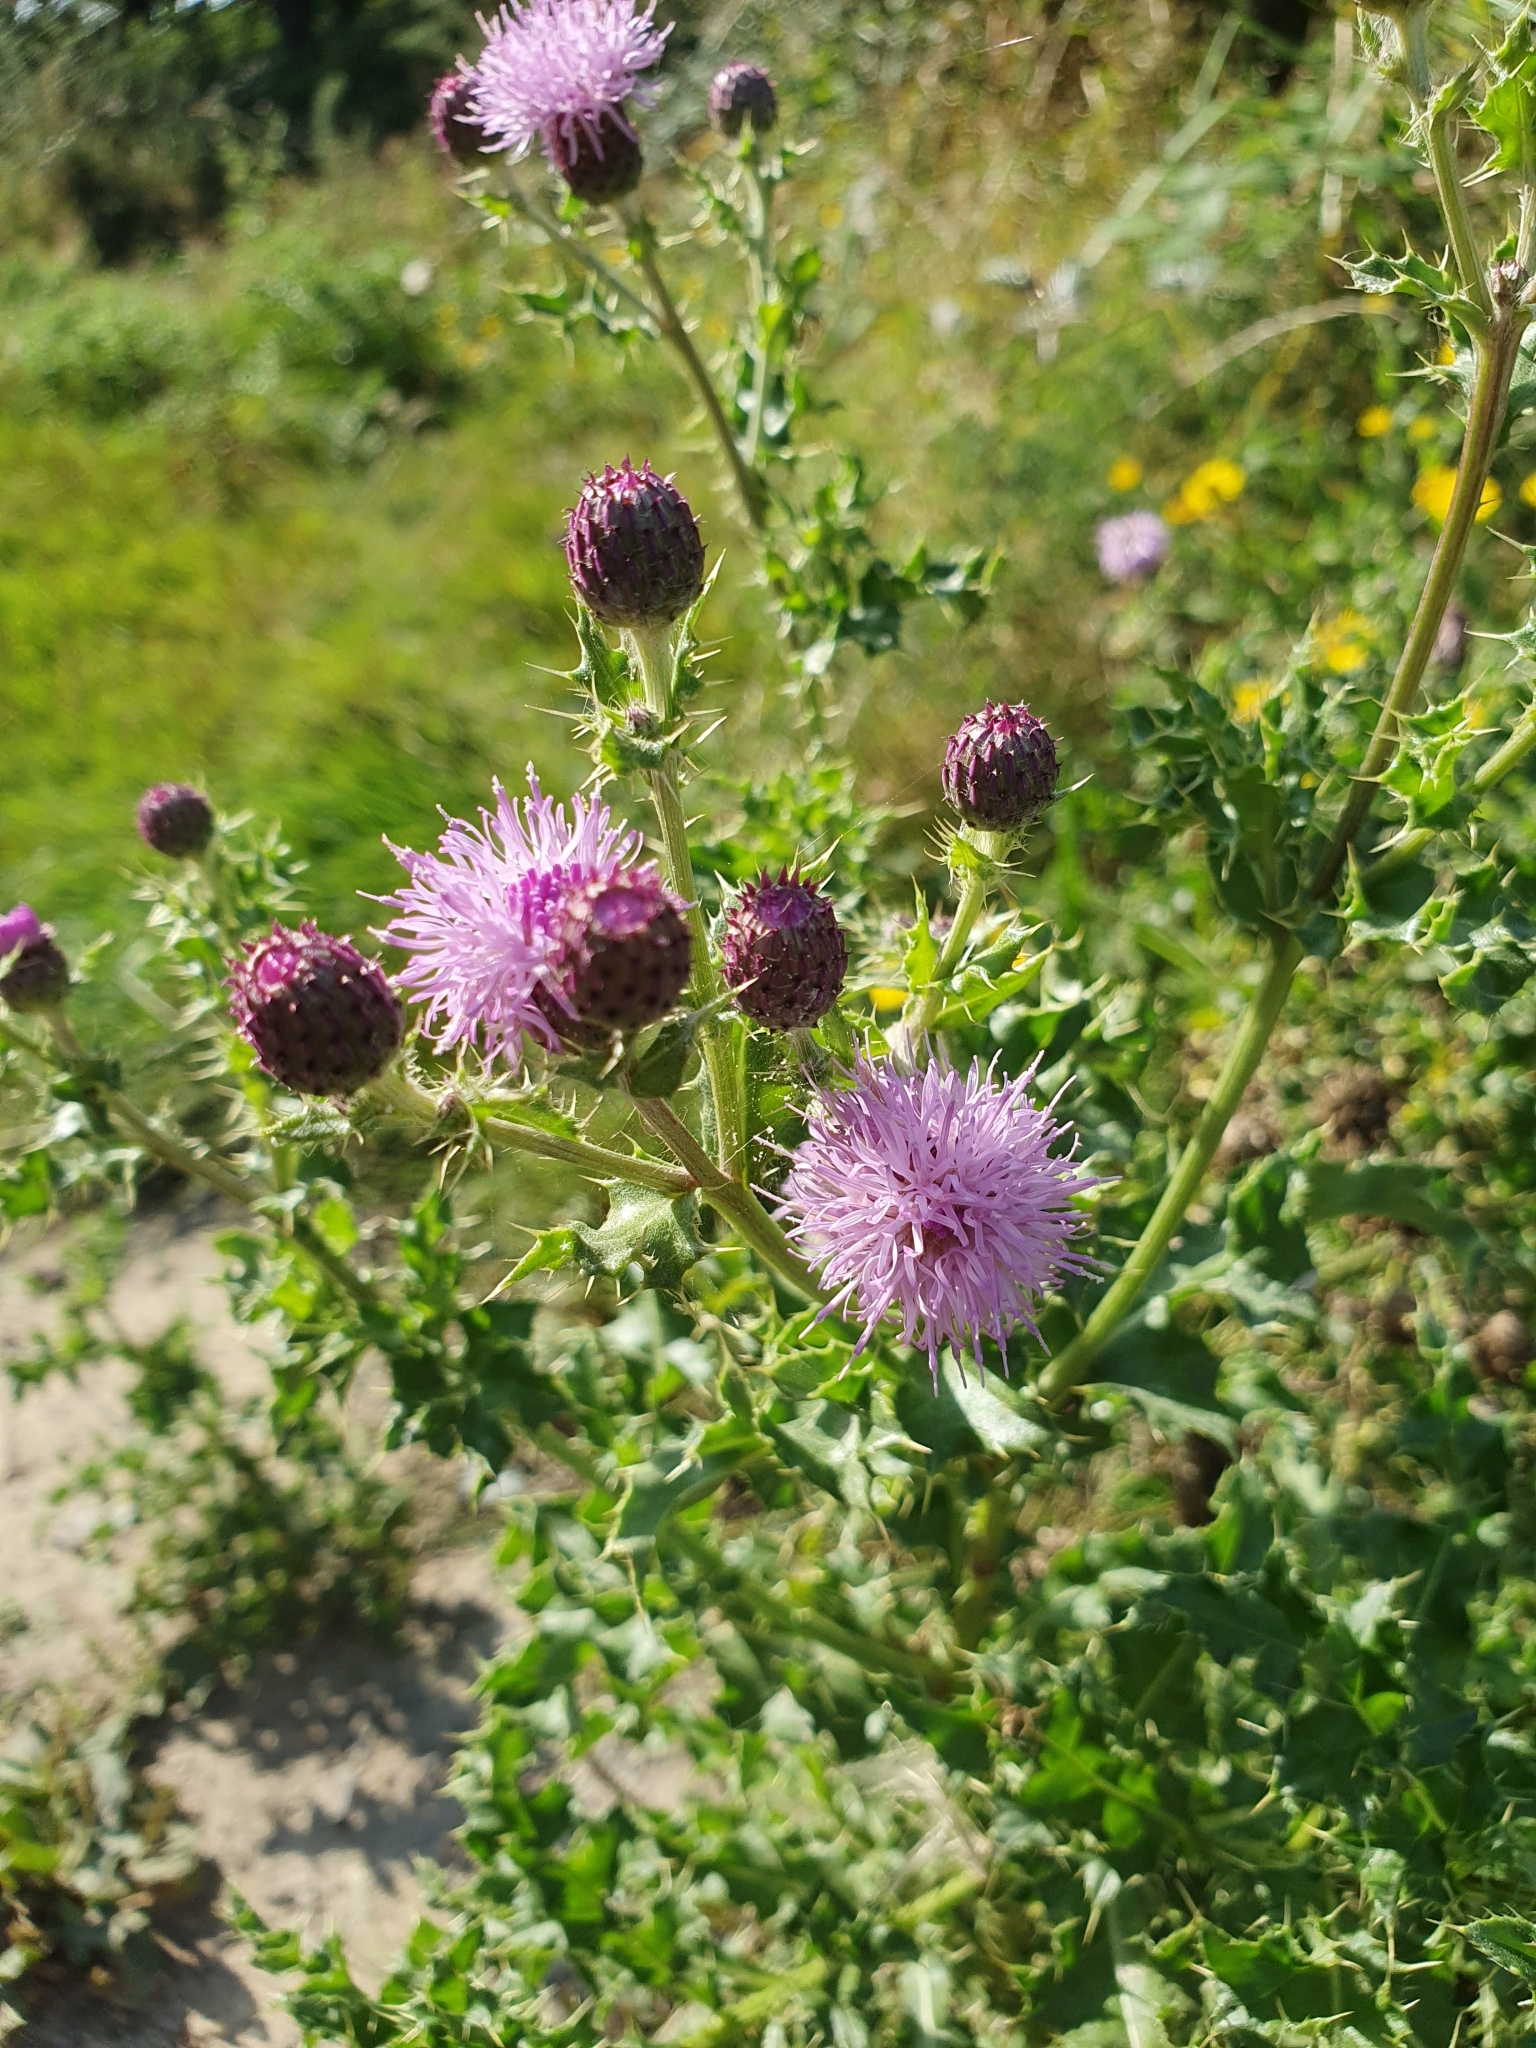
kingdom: Plantae
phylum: Tracheophyta
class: Magnoliopsida
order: Asterales
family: Asteraceae
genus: Cirsium
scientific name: Cirsium arvense
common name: Creeping thistle
